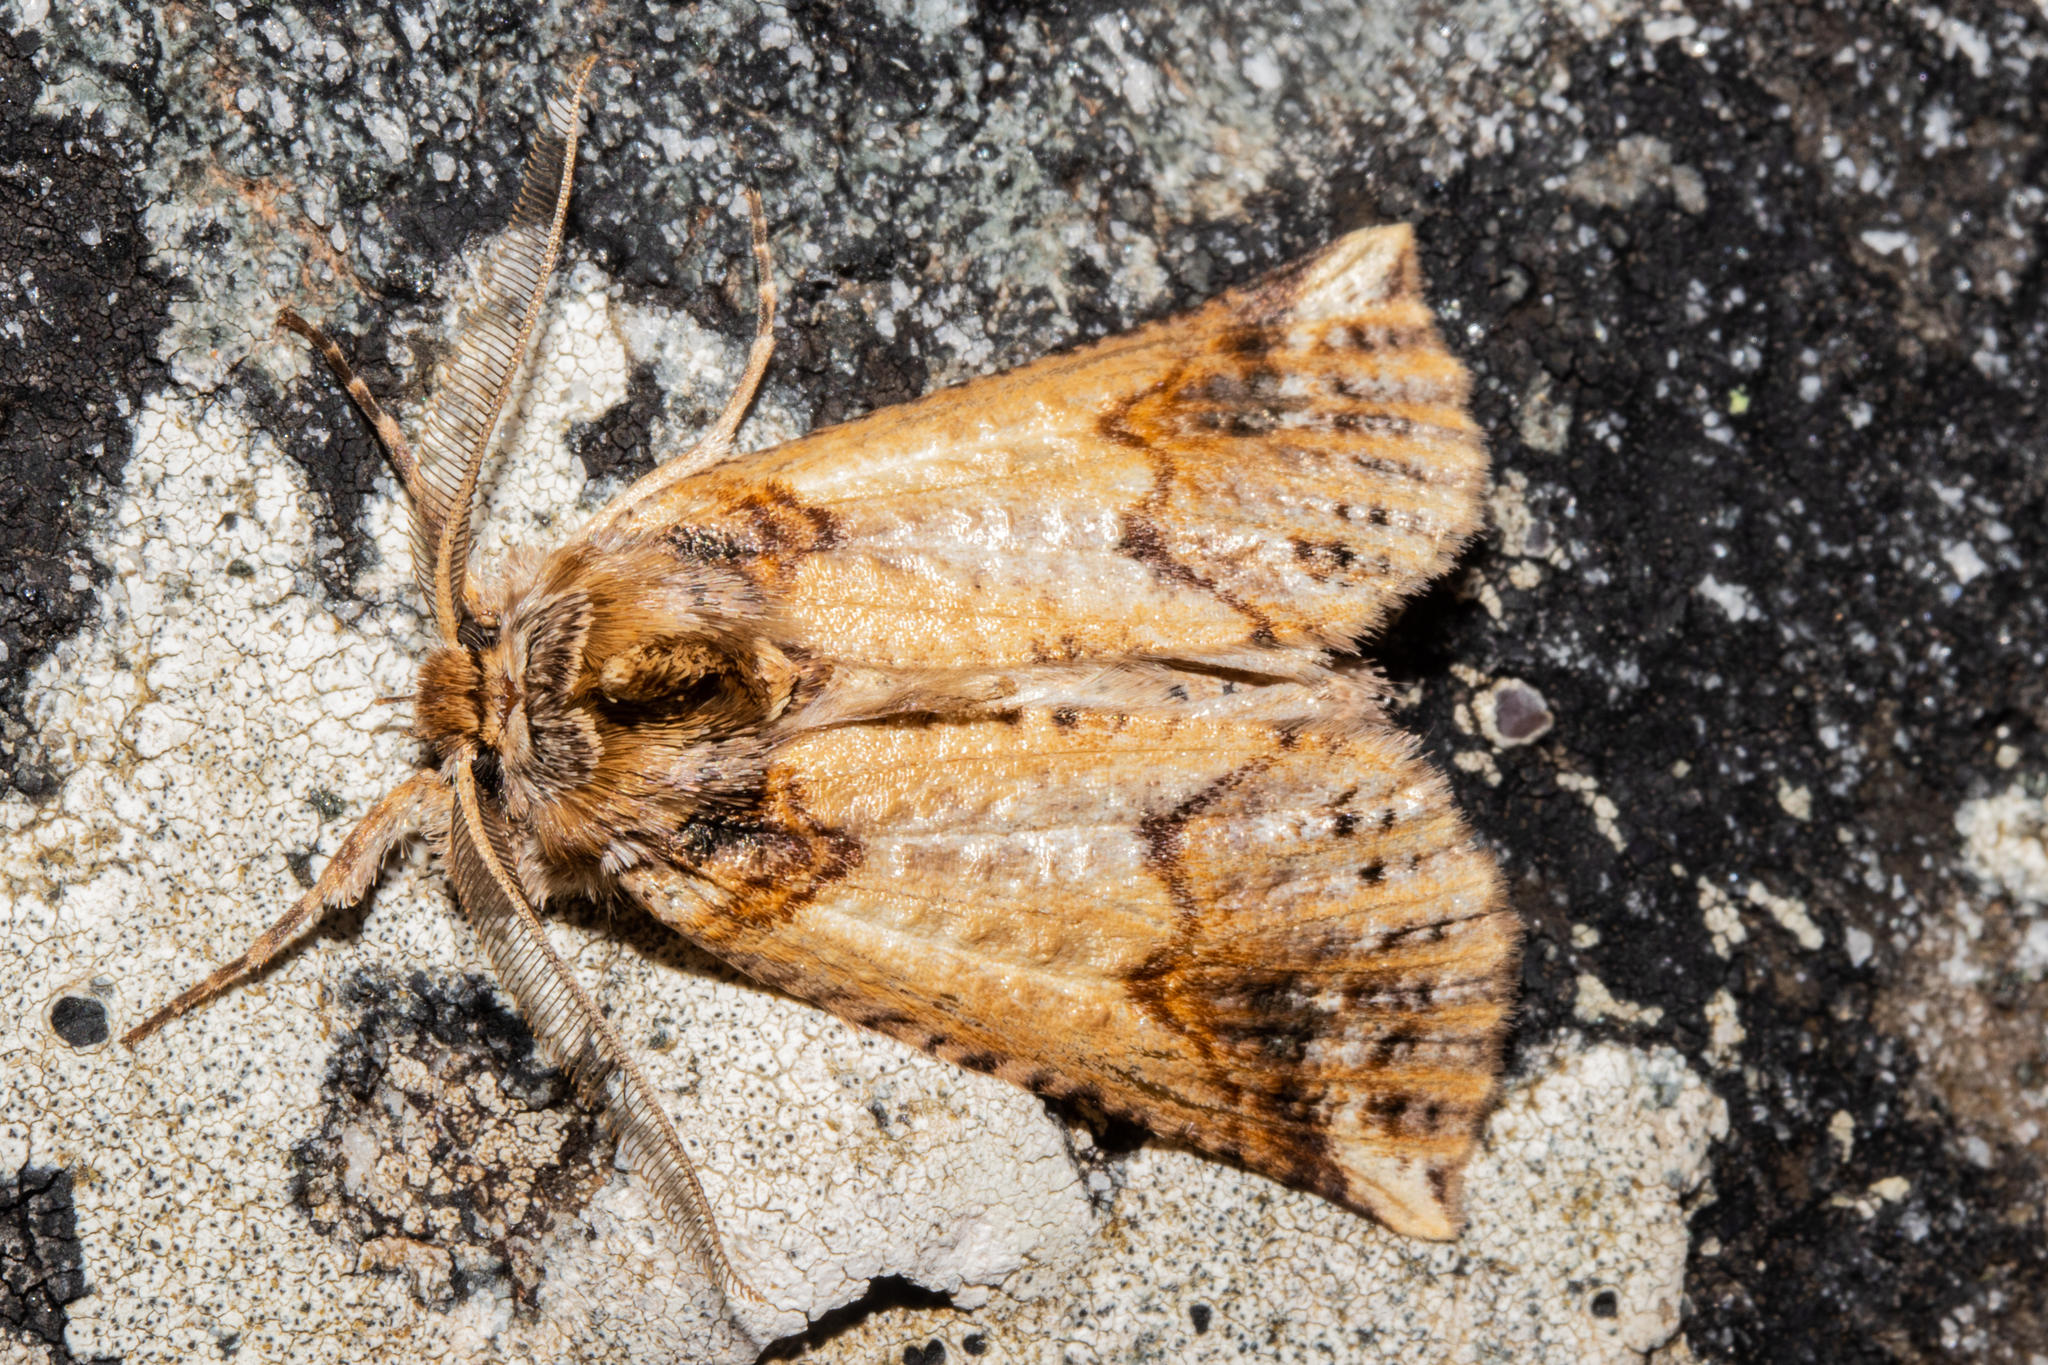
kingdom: Animalia
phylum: Arthropoda
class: Insecta
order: Lepidoptera
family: Geometridae
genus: Declana
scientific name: Declana
